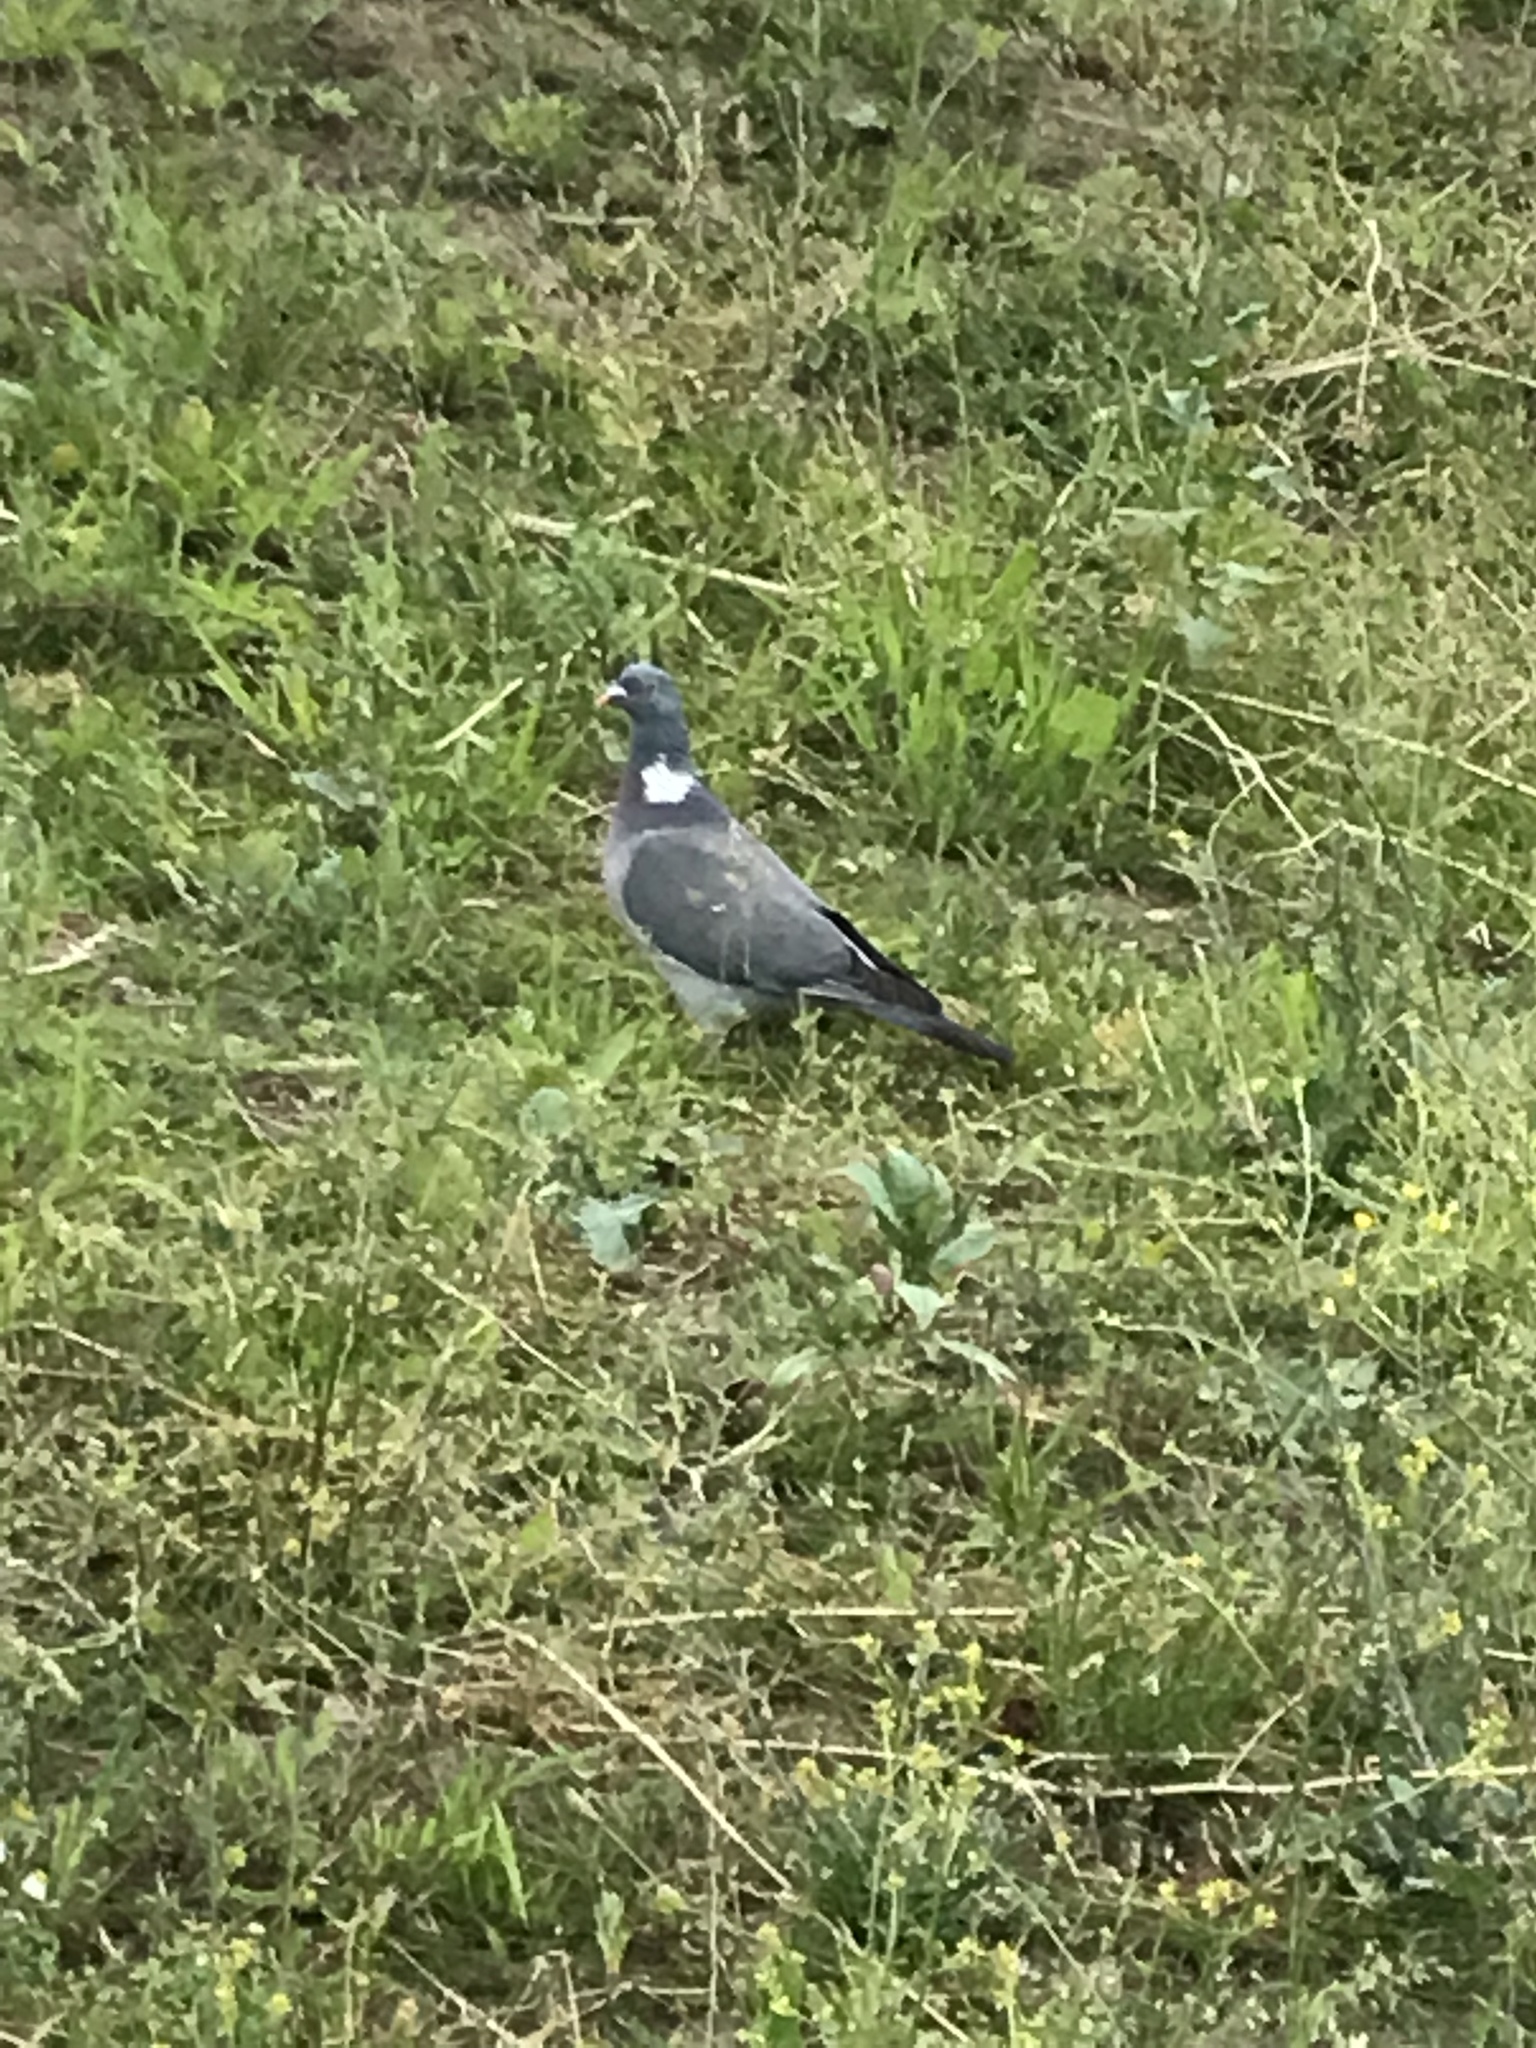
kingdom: Animalia
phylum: Chordata
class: Aves
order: Columbiformes
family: Columbidae
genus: Columba
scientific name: Columba palumbus
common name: Common wood pigeon
